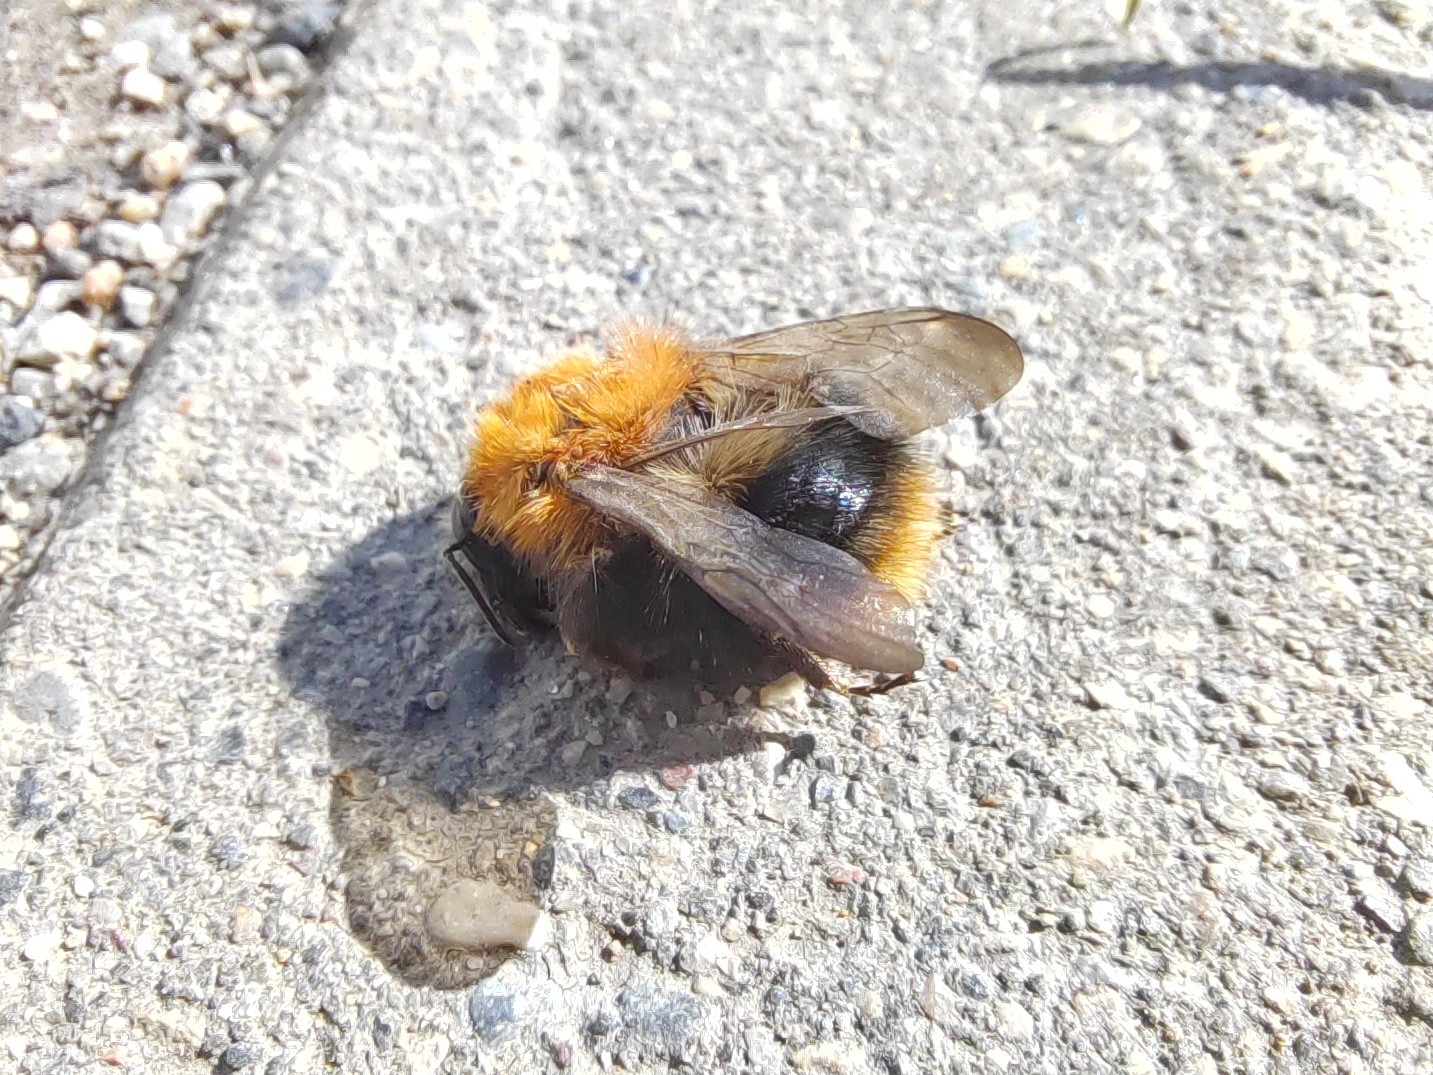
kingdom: Animalia
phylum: Arthropoda
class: Insecta
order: Hymenoptera
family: Apidae
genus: Bombus
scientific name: Bombus pascuorum
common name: Common carder bee
